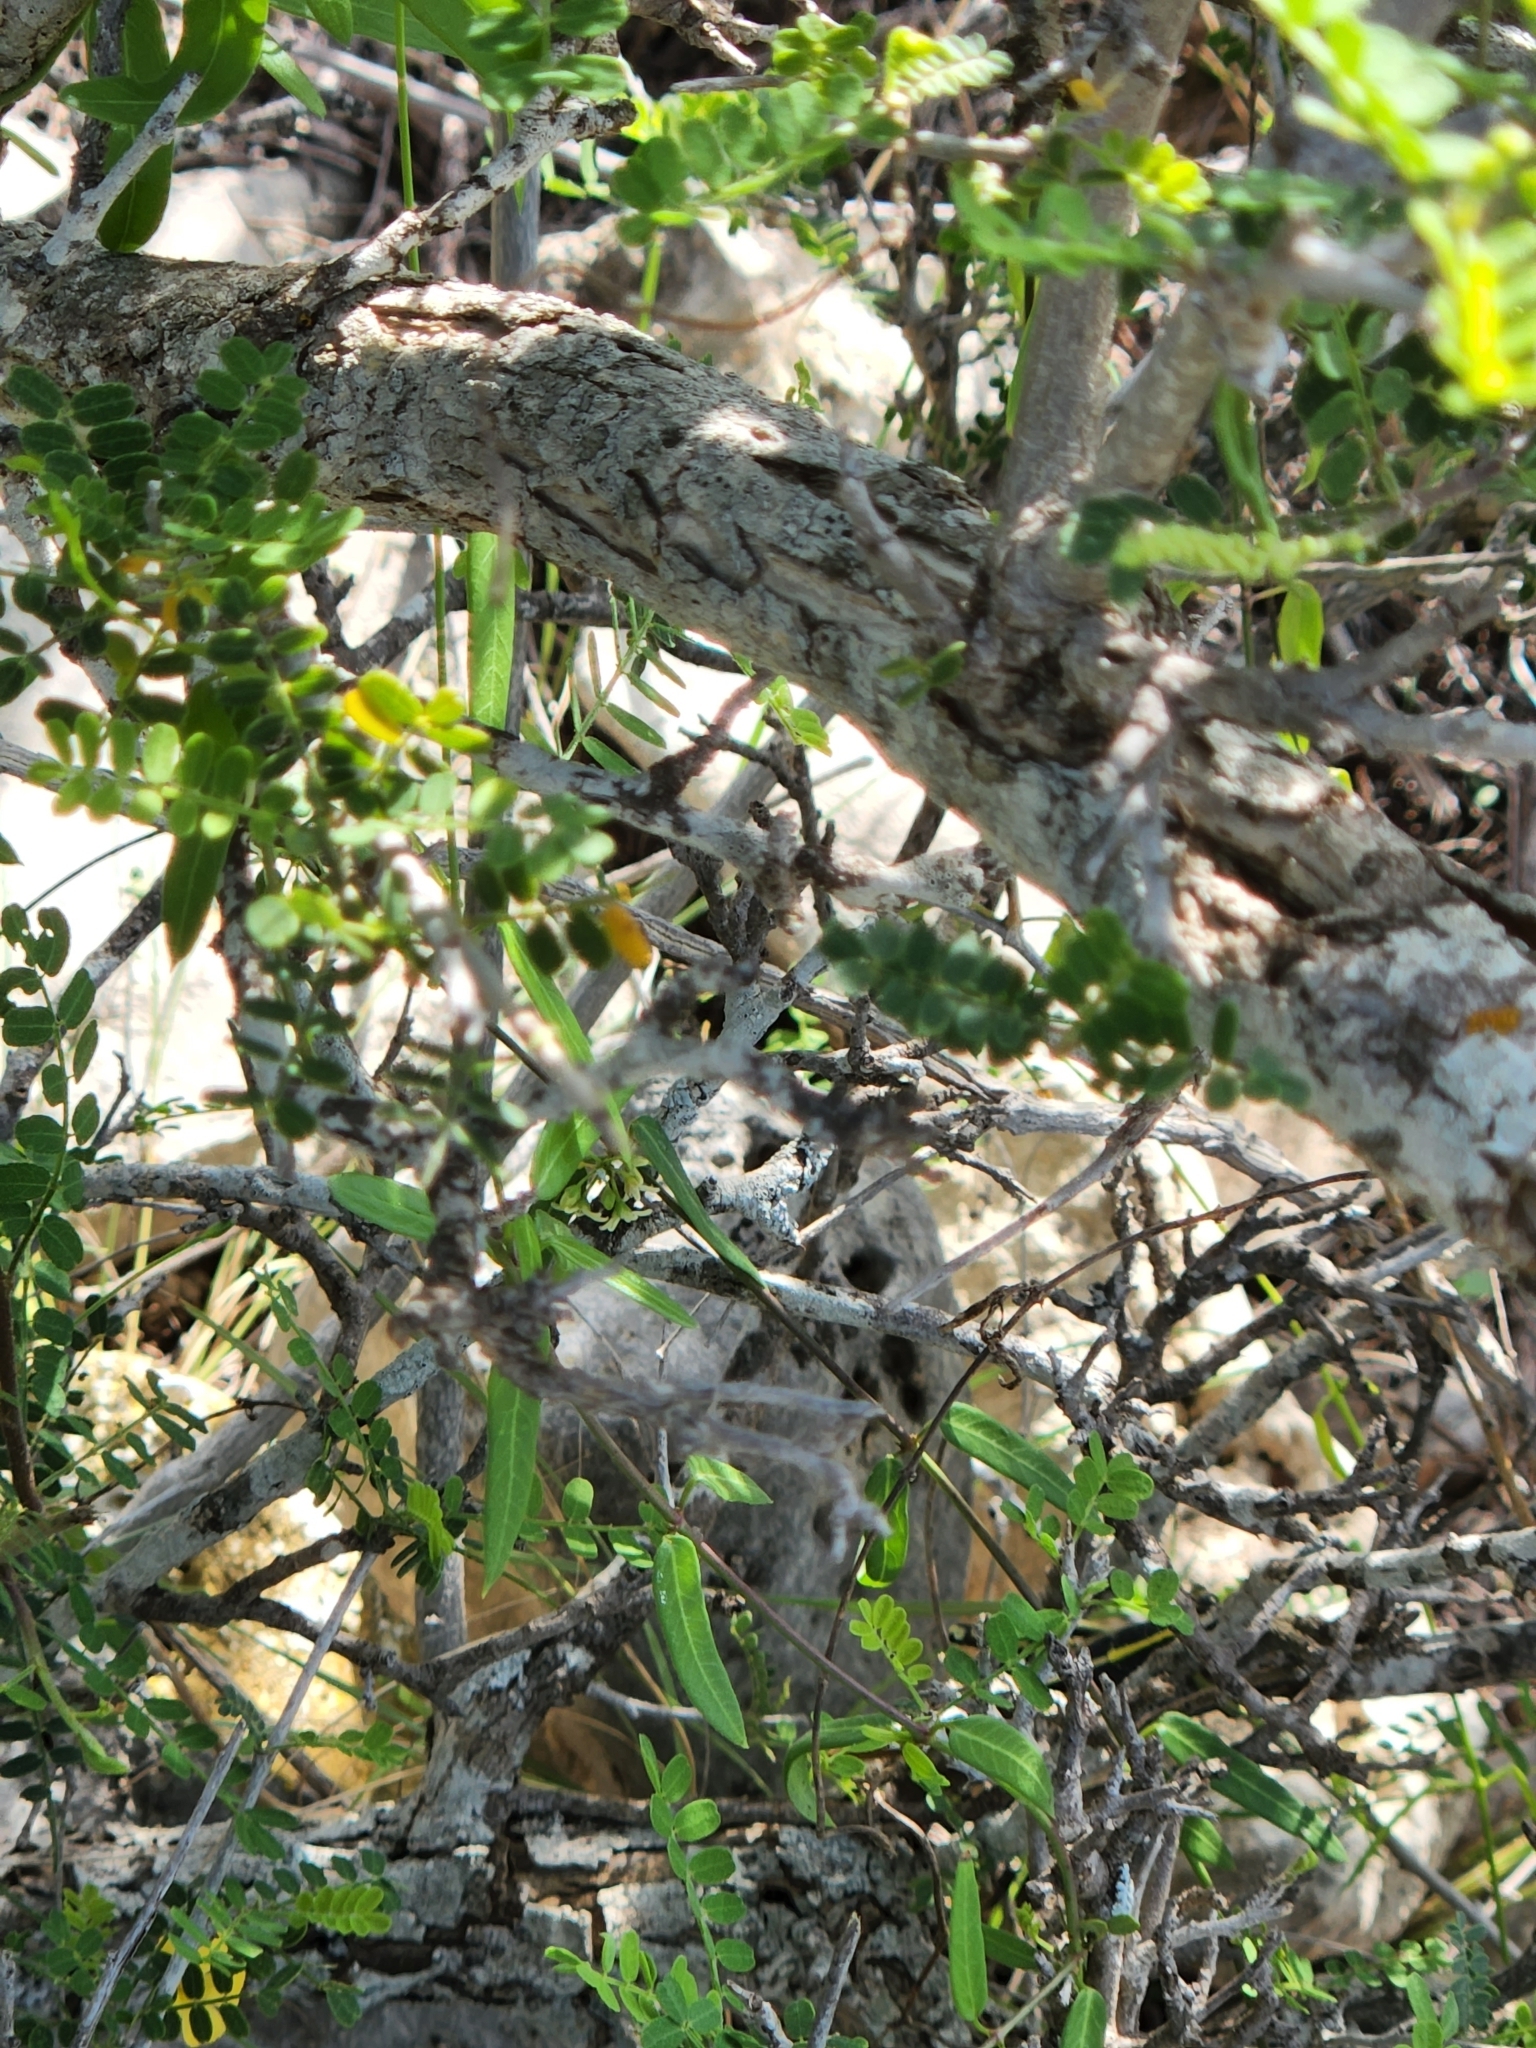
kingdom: Plantae
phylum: Tracheophyta
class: Magnoliopsida
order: Fabales
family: Fabaceae
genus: Eysenhardtia
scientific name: Eysenhardtia texana
